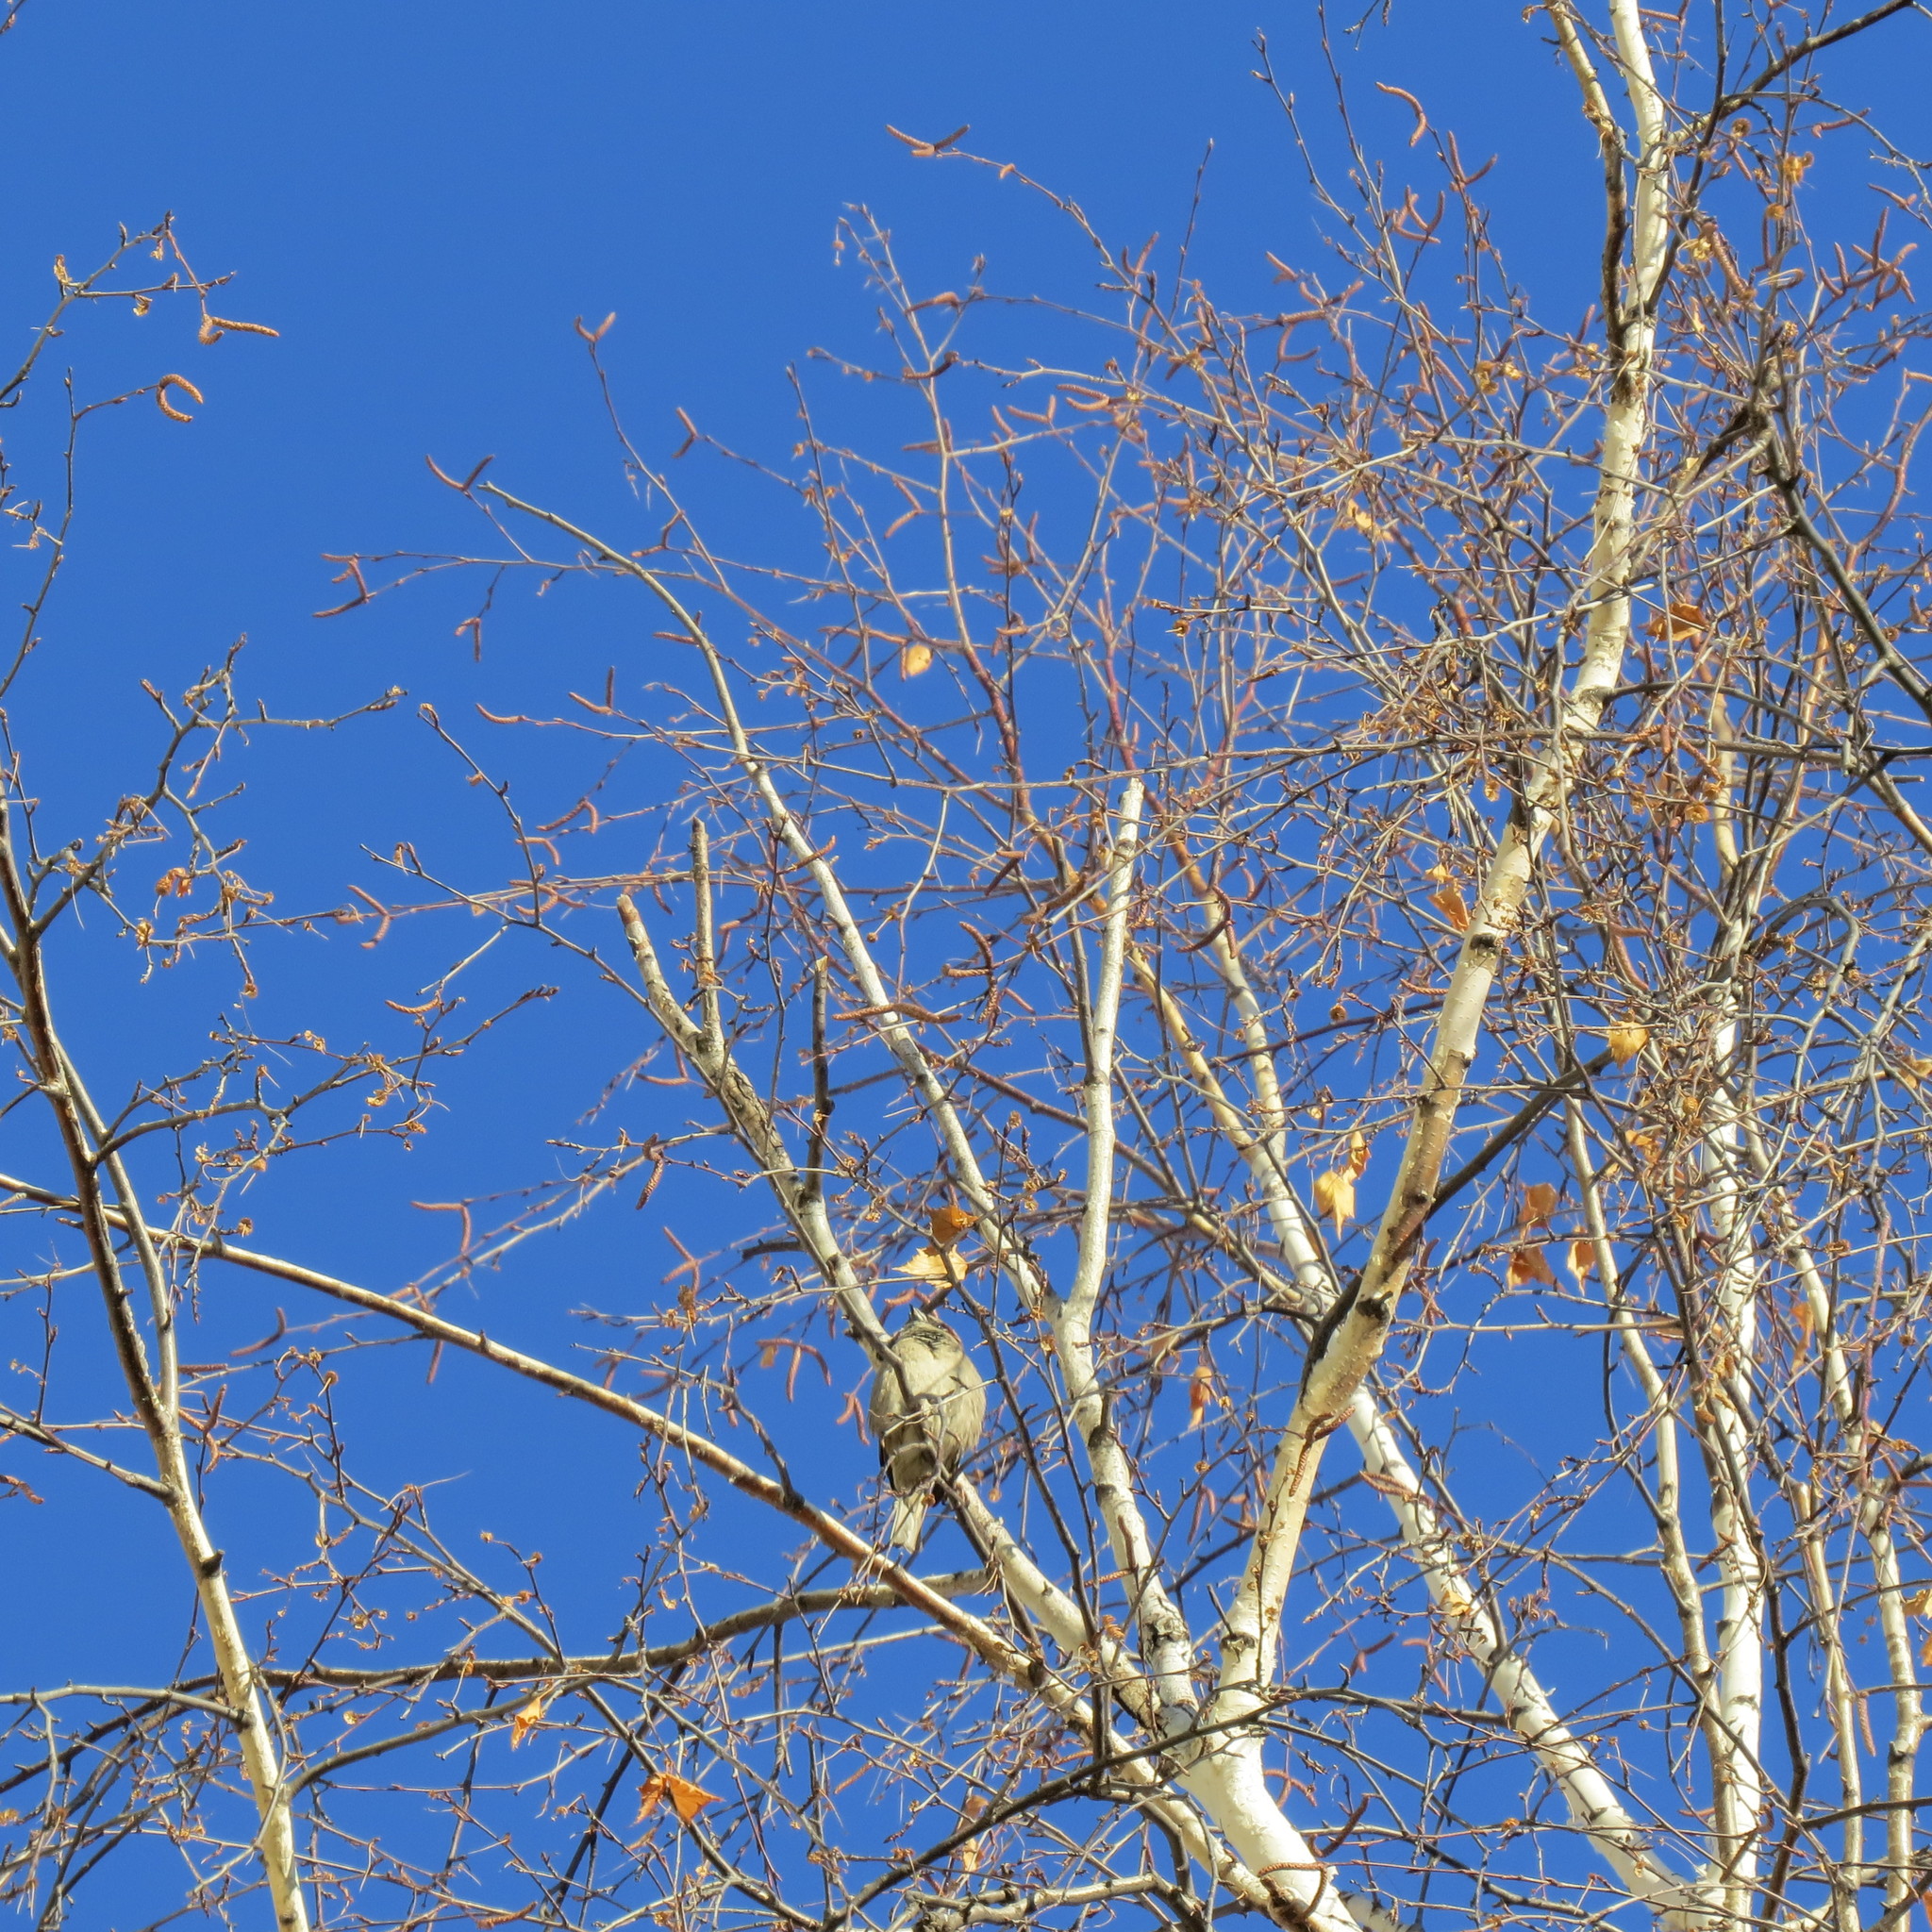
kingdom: Animalia
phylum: Chordata
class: Aves
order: Passeriformes
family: Passeridae
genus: Passer
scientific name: Passer domesticus
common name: House sparrow
